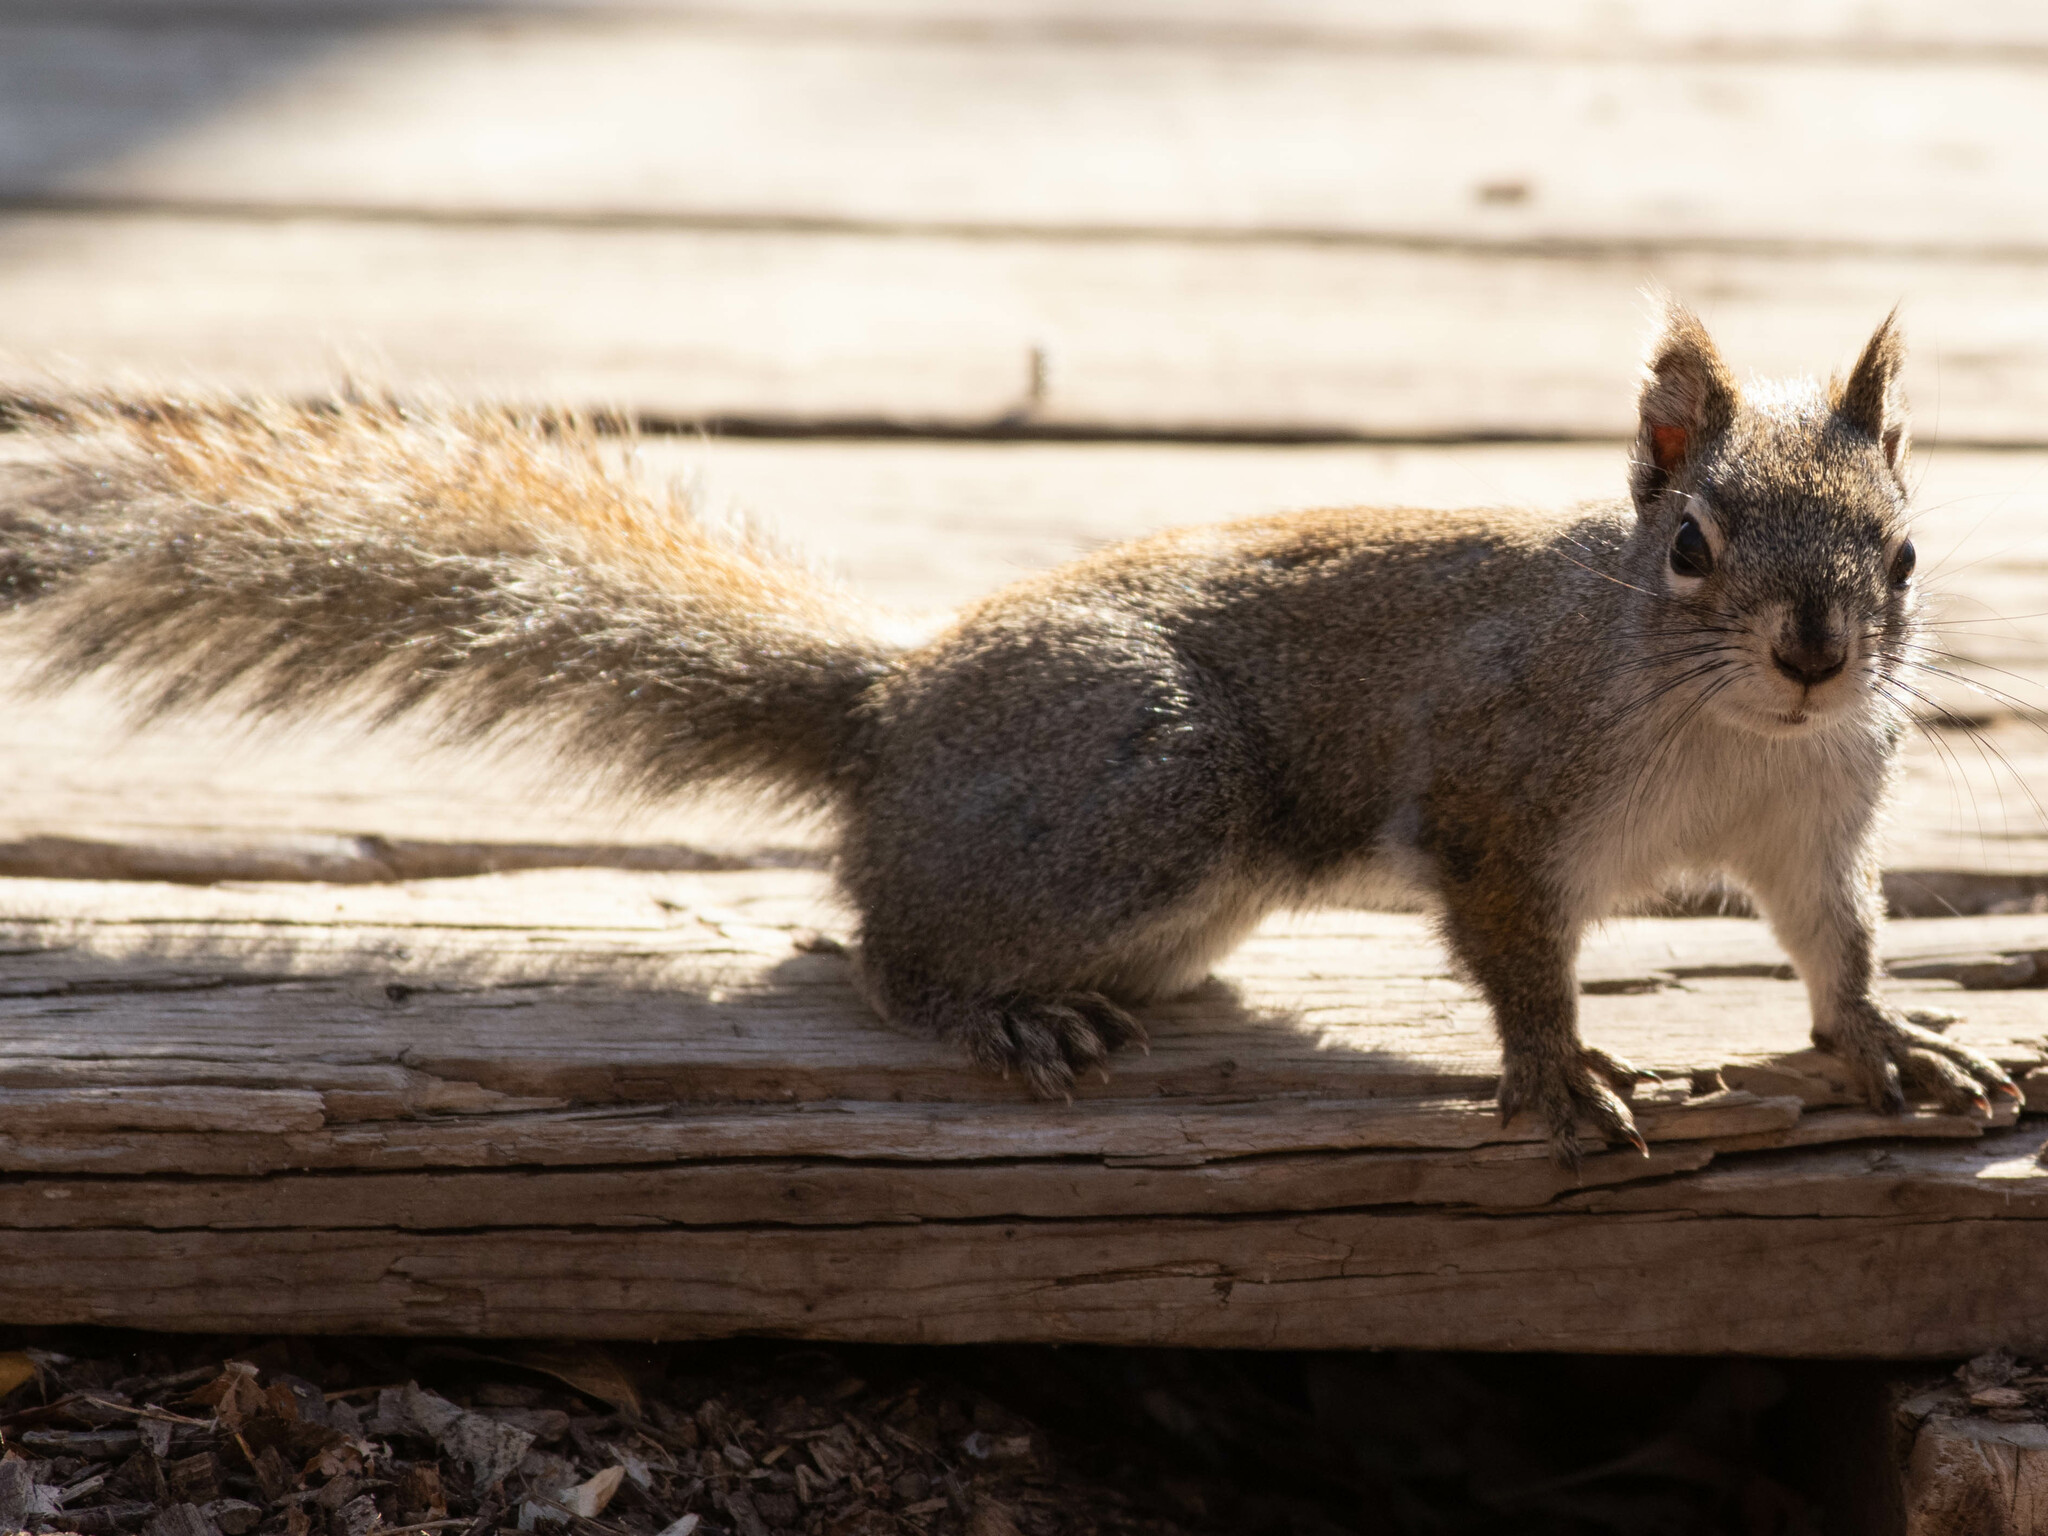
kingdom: Animalia
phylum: Chordata
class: Mammalia
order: Rodentia
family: Sciuridae
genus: Tamiasciurus
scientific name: Tamiasciurus hudsonicus
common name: Red squirrel
